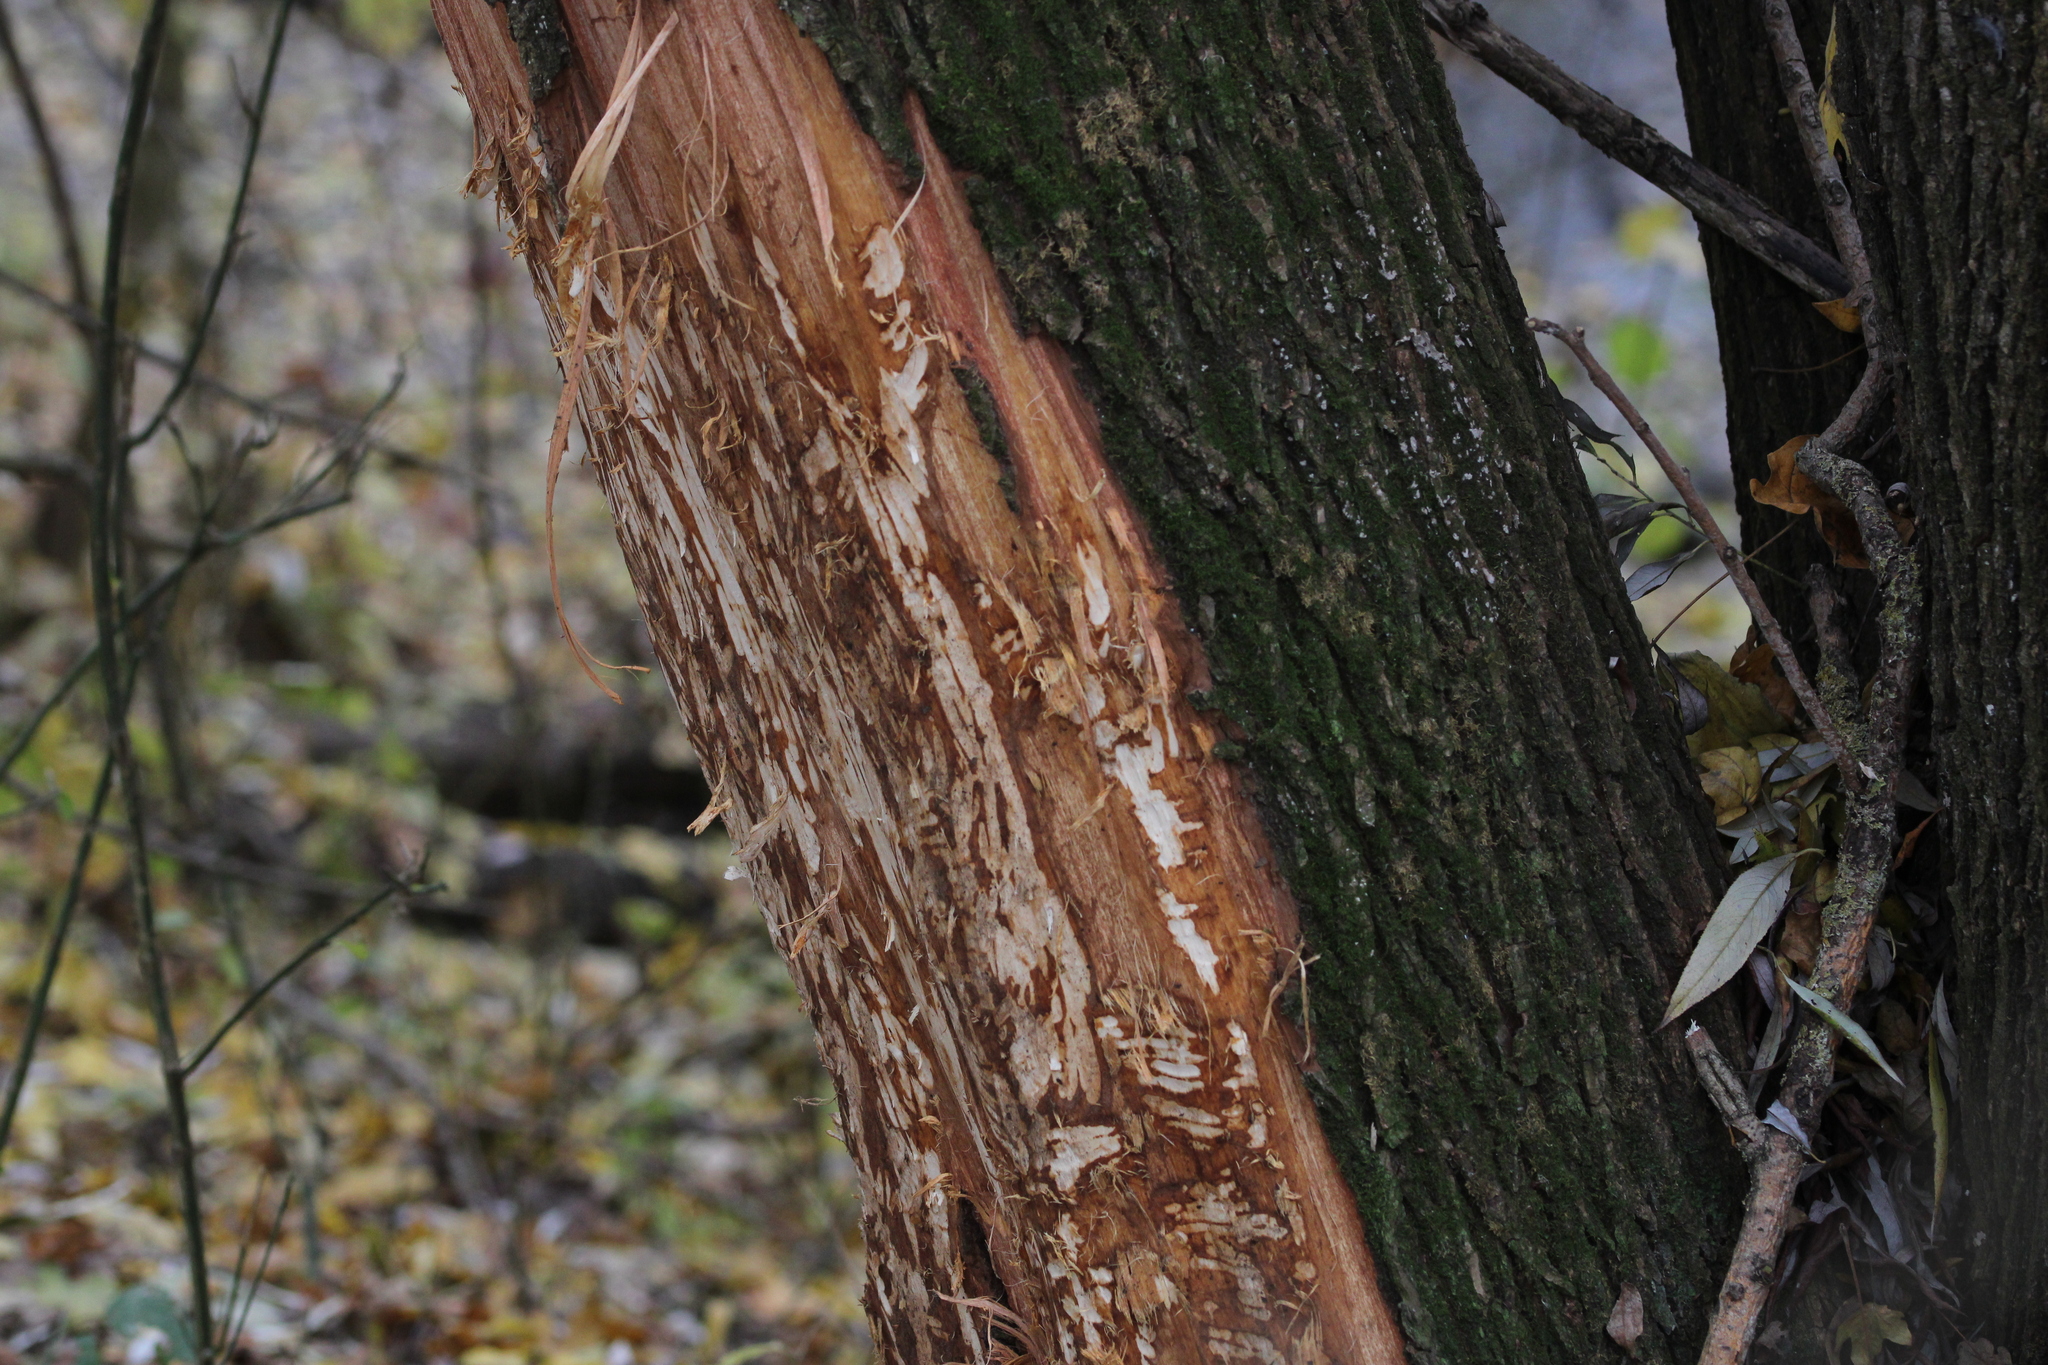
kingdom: Animalia
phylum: Chordata
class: Mammalia
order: Rodentia
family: Castoridae
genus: Castor
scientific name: Castor fiber
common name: Eurasian beaver
